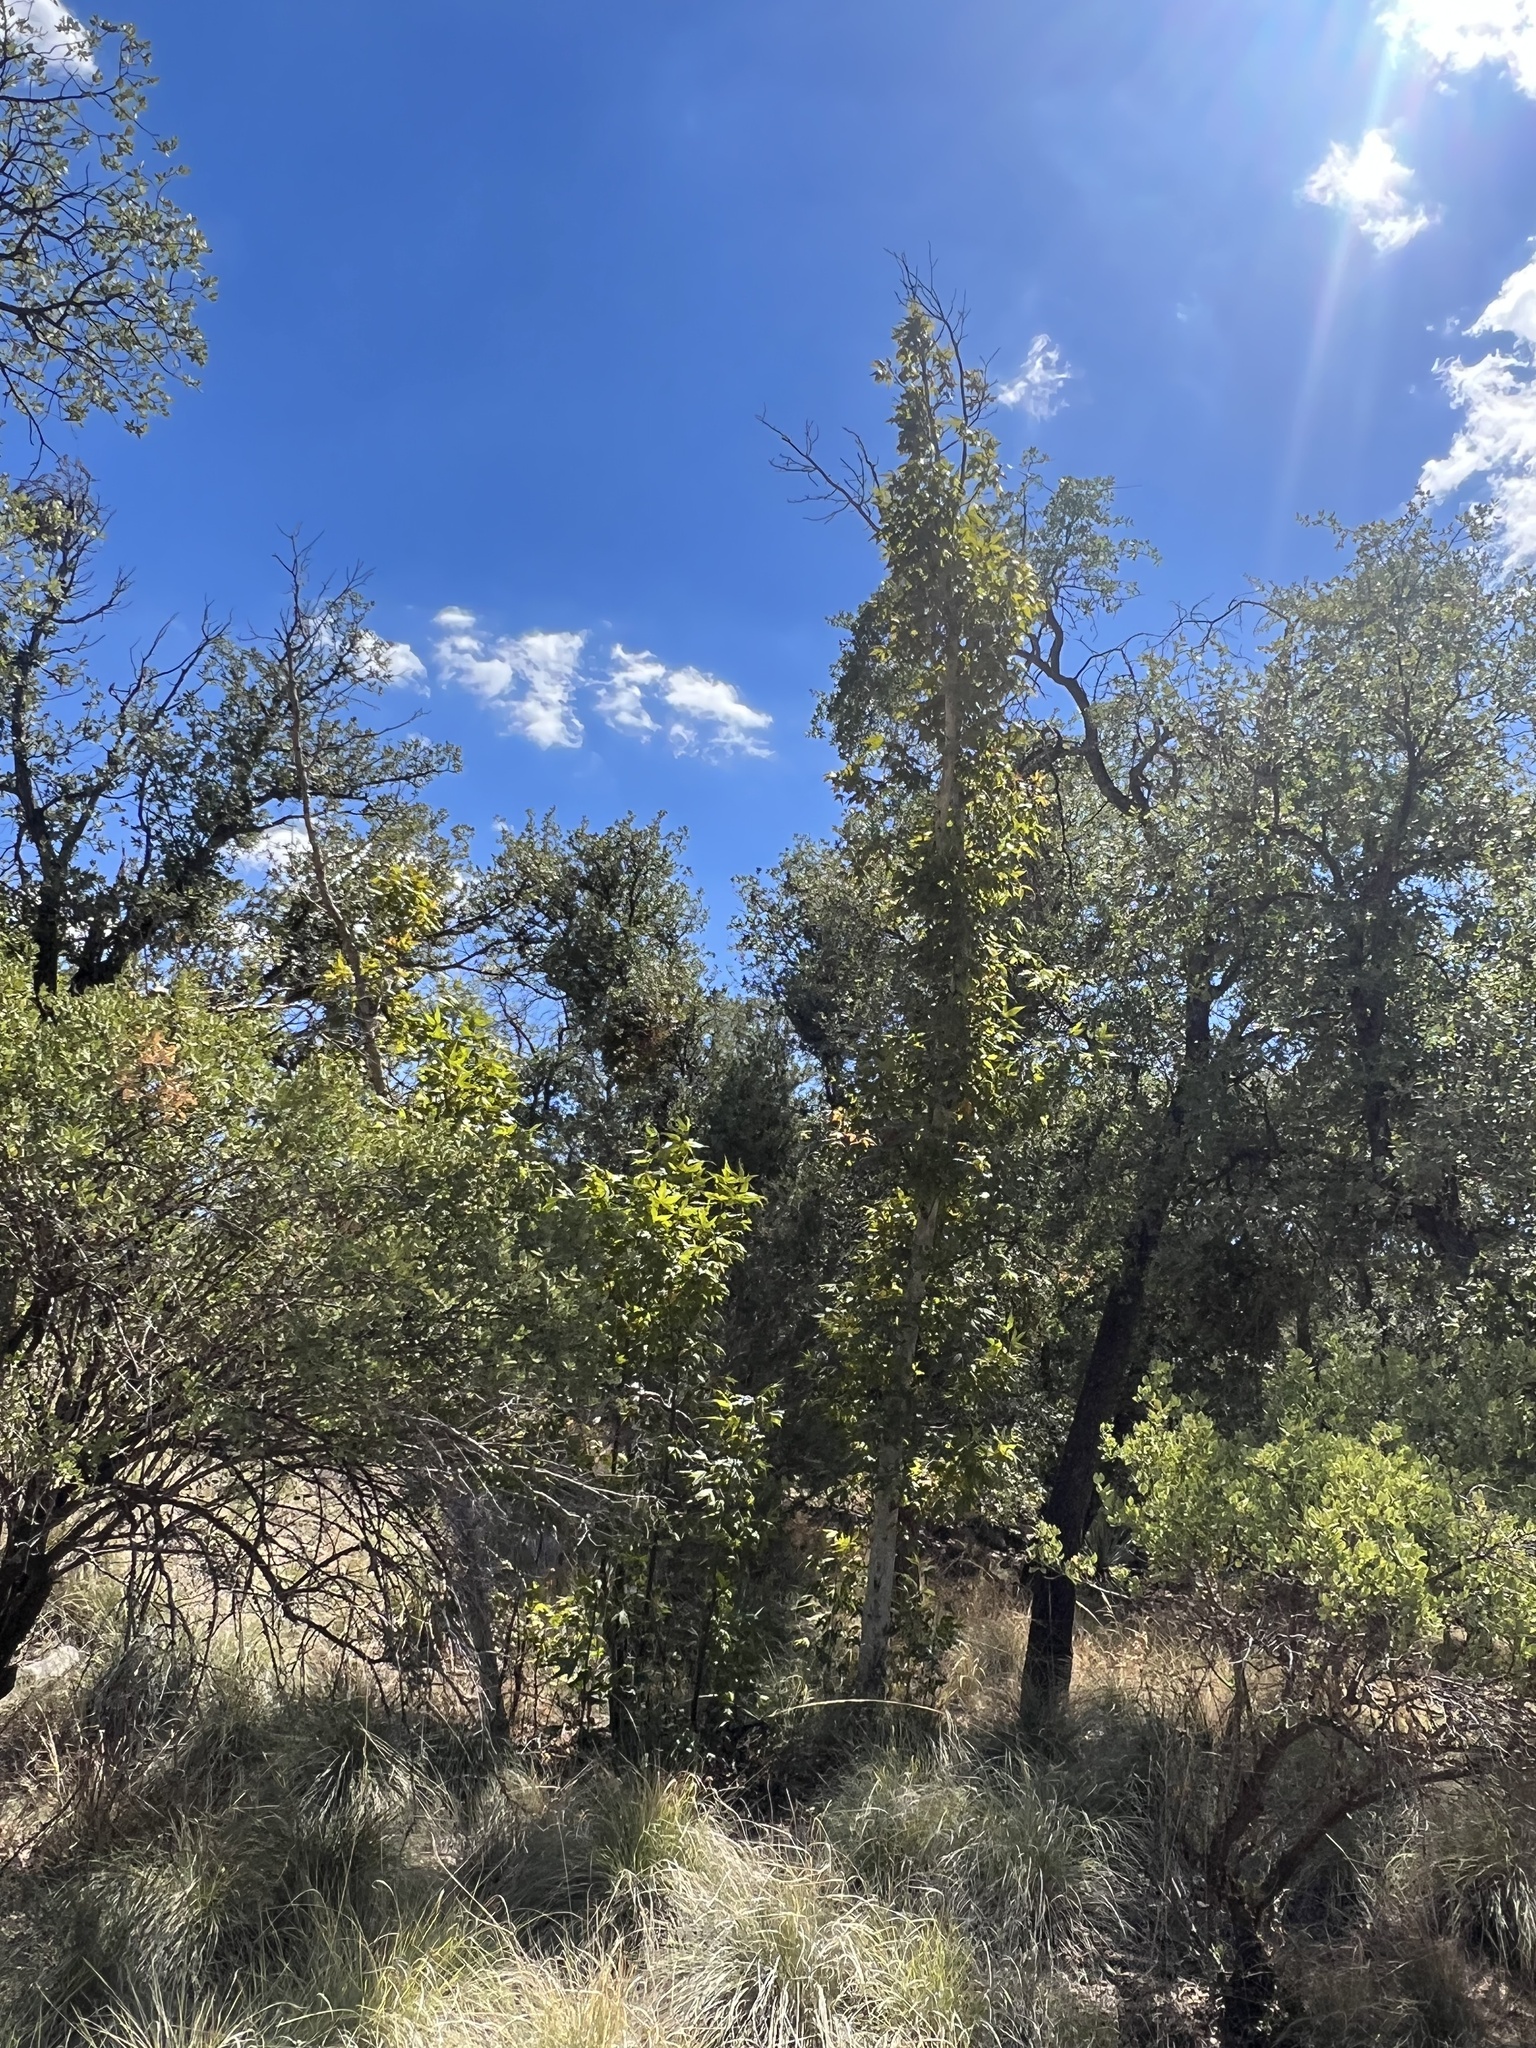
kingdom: Plantae
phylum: Tracheophyta
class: Magnoliopsida
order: Proteales
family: Platanaceae
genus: Platanus
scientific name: Platanus wrightii
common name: Arizona sycamore
